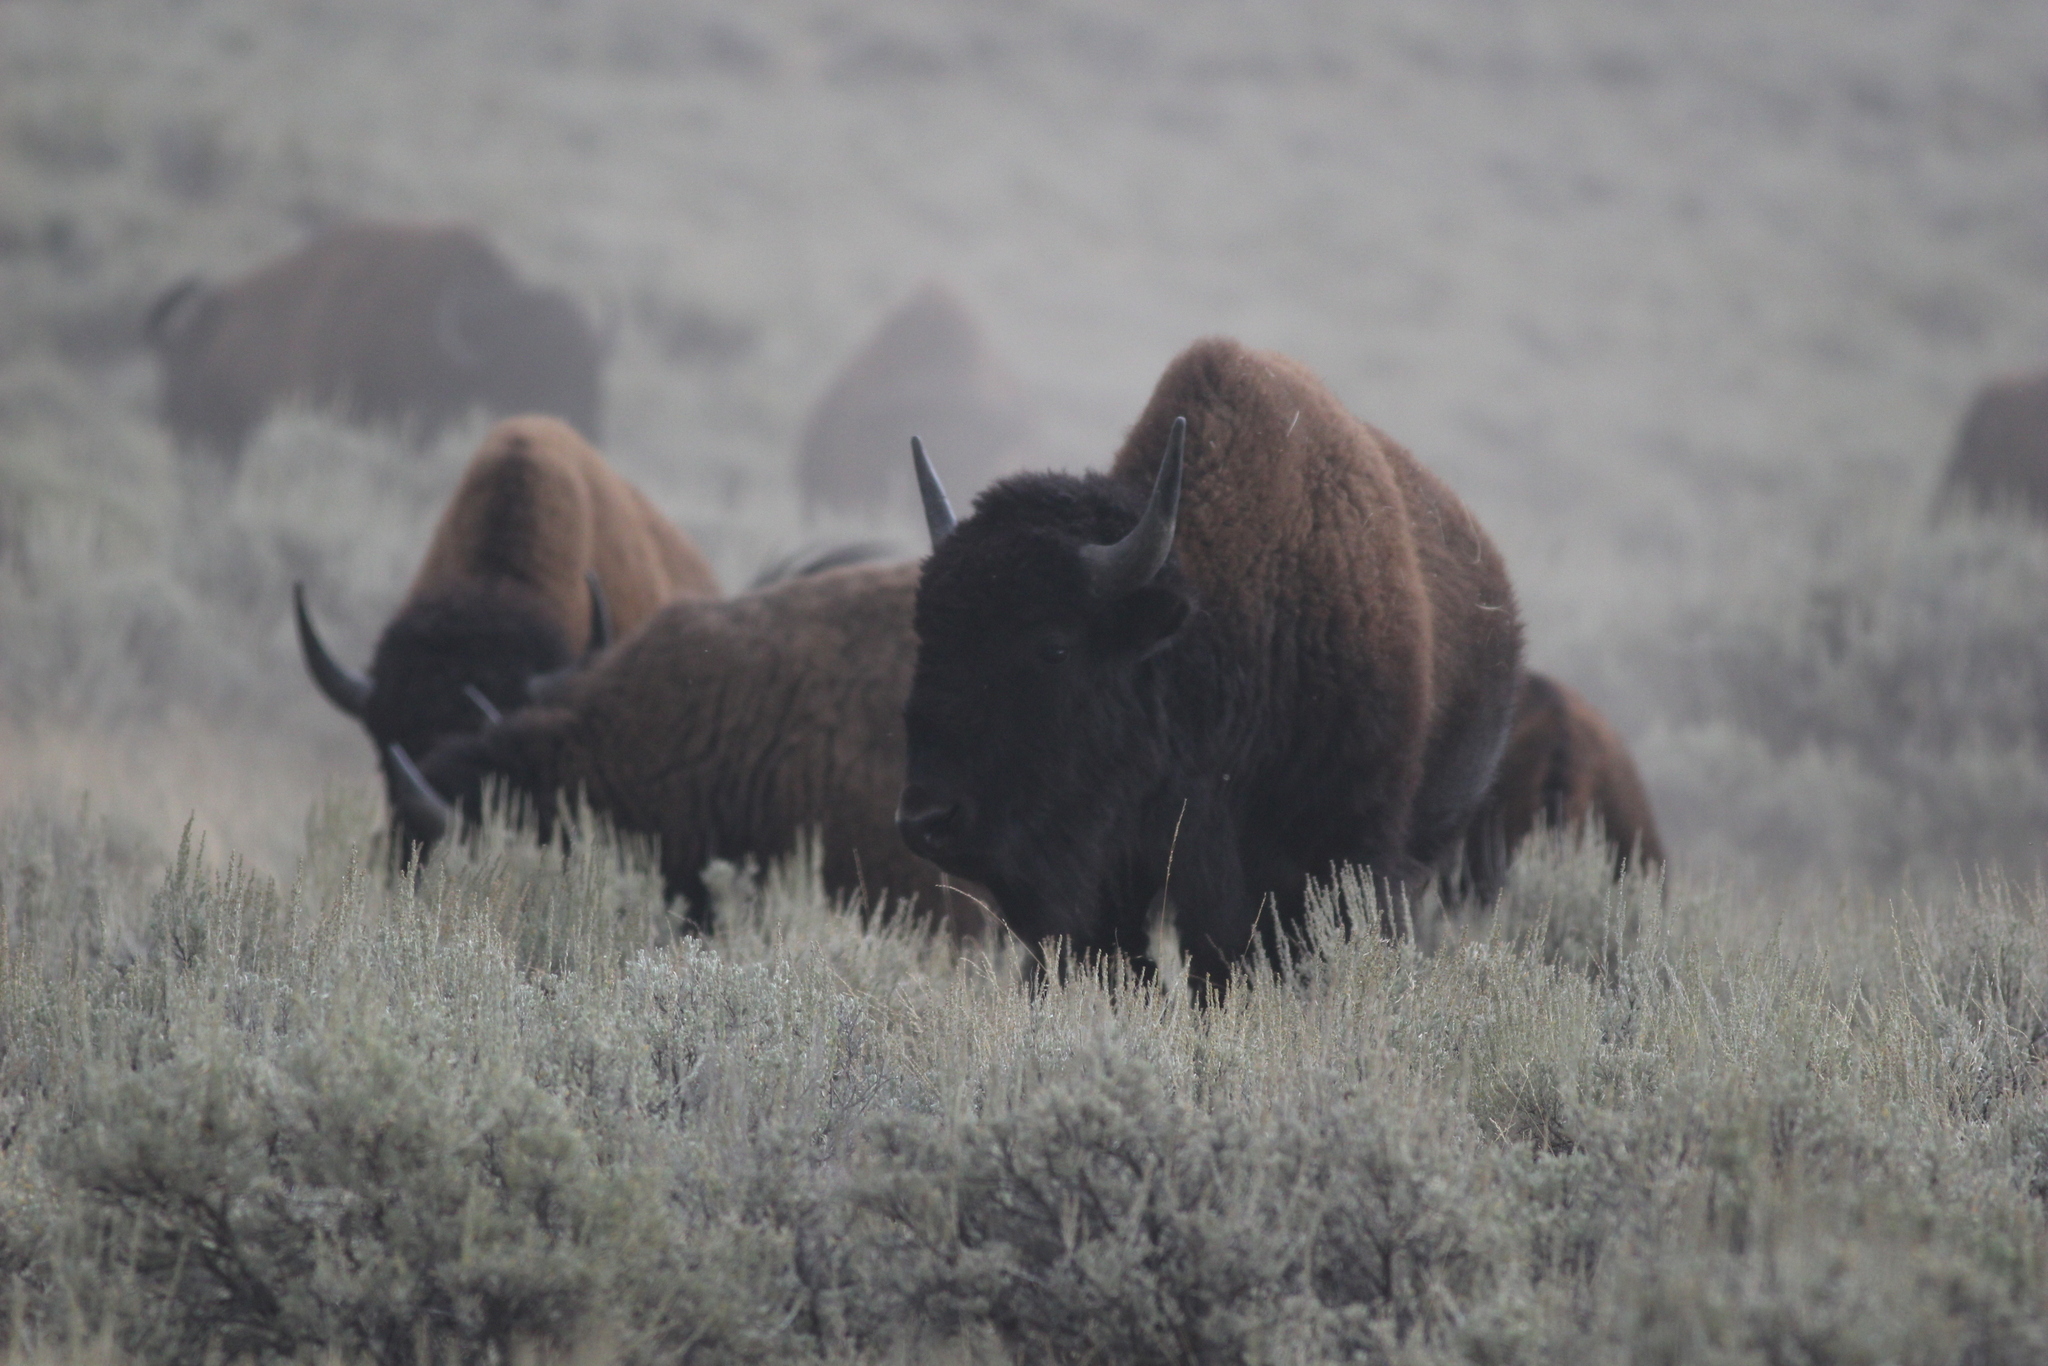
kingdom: Animalia
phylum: Chordata
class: Mammalia
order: Artiodactyla
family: Bovidae
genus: Bison
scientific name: Bison bison
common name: American bison
